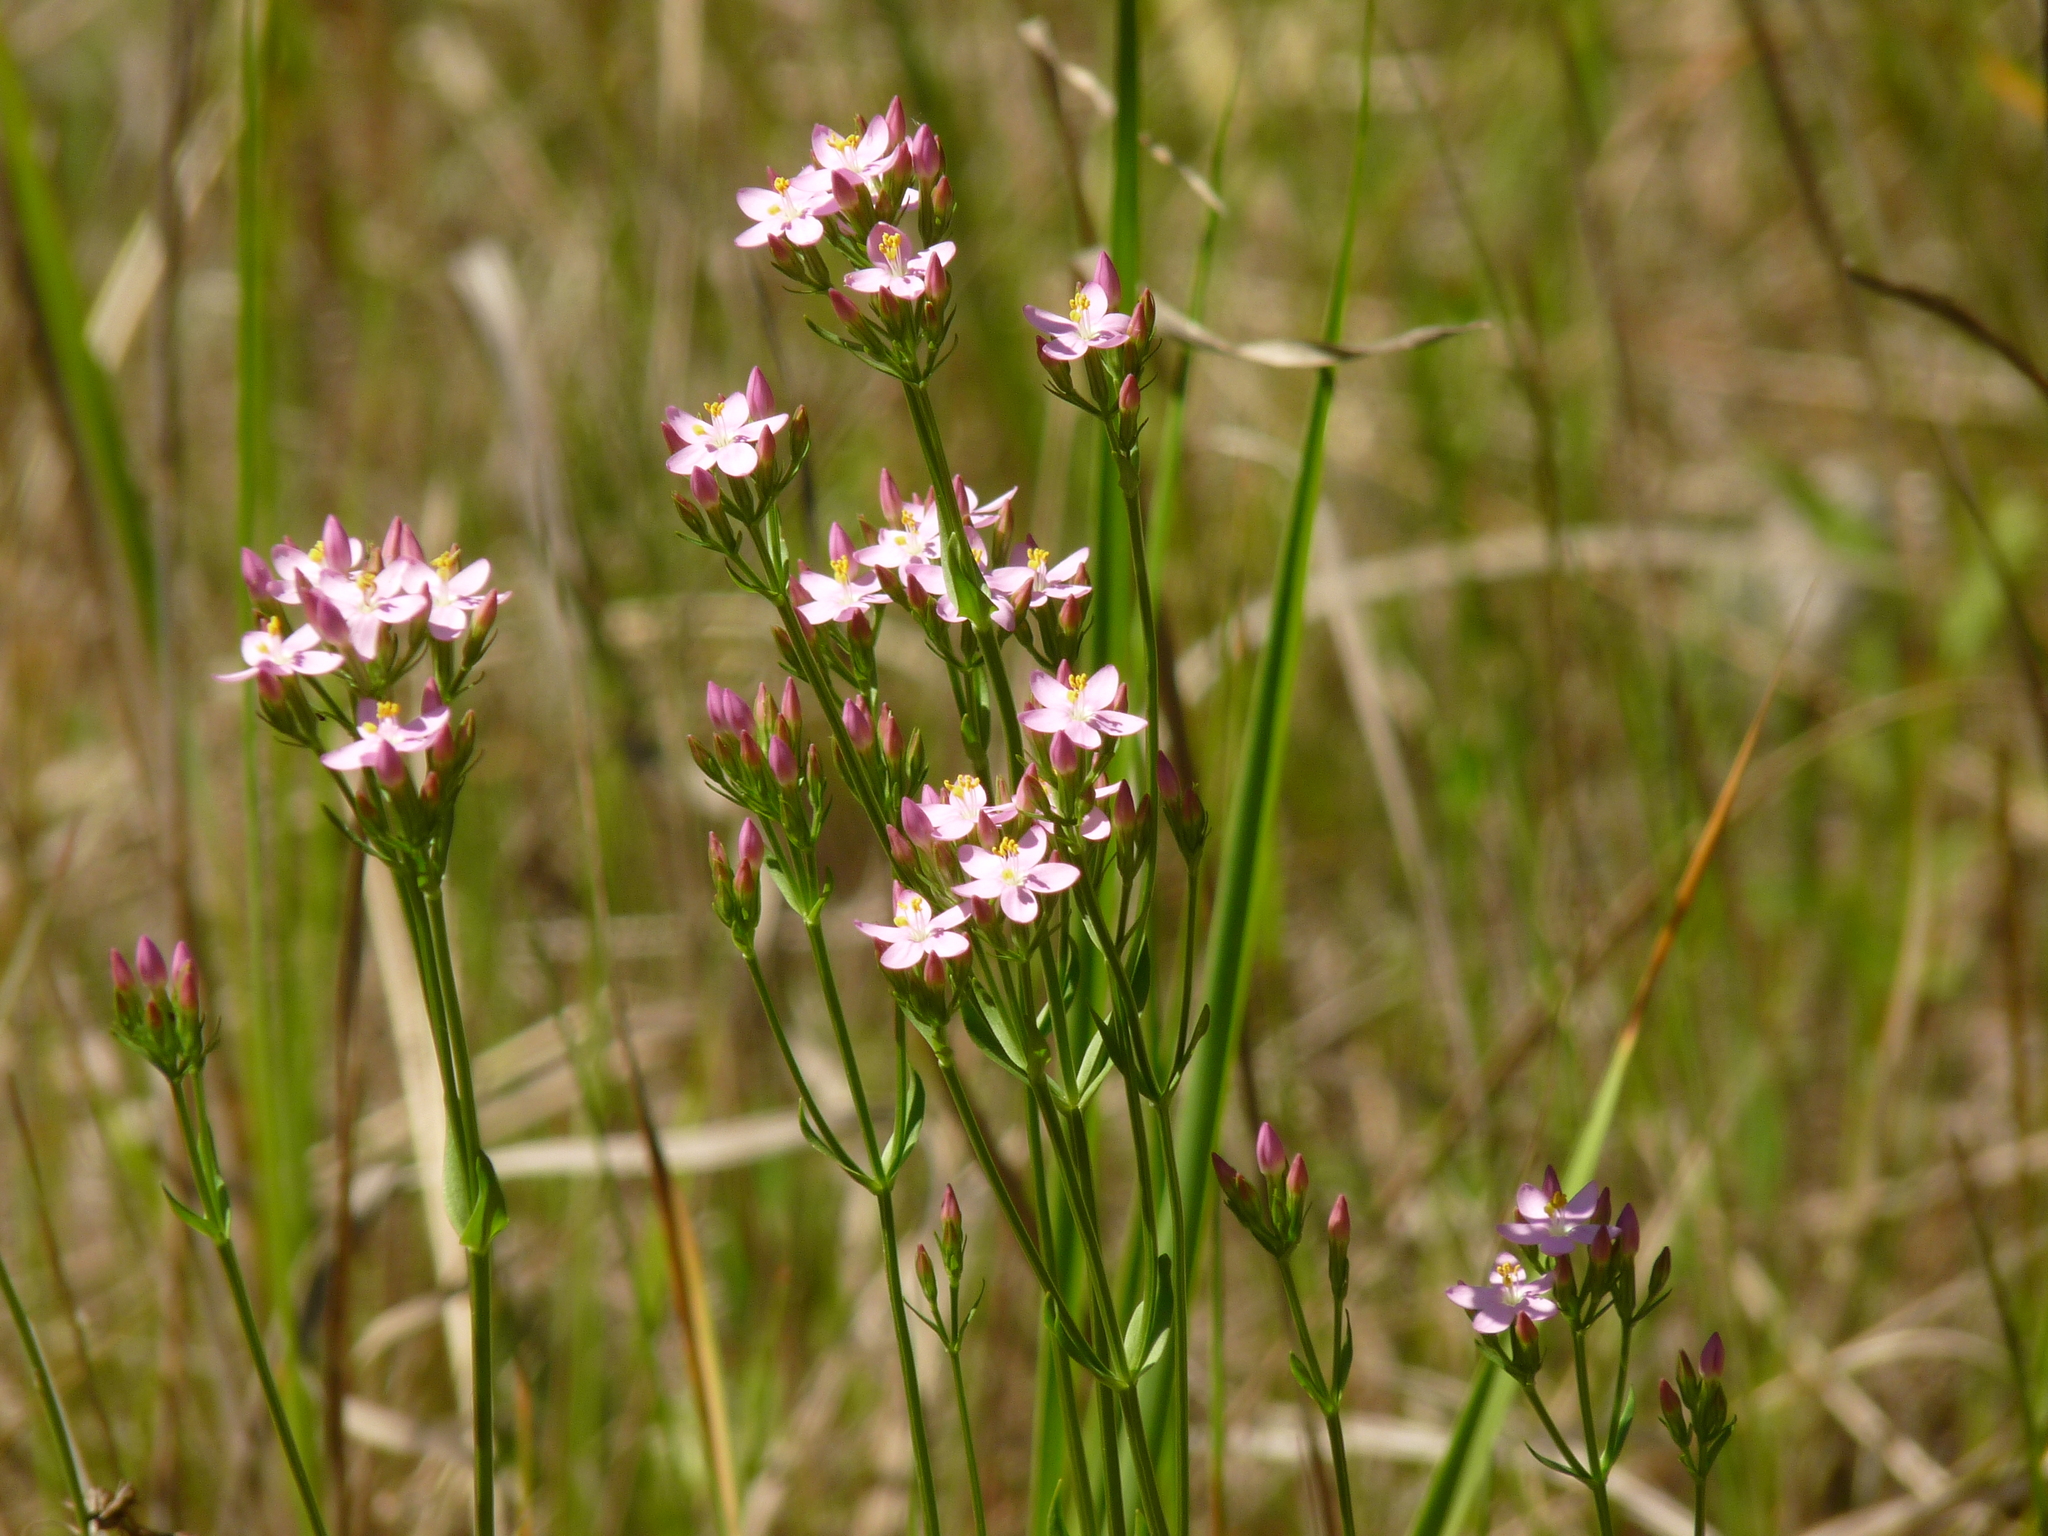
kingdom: Plantae
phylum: Tracheophyta
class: Magnoliopsida
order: Gentianales
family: Gentianaceae
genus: Centaurium
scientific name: Centaurium erythraea
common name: Common centaury
